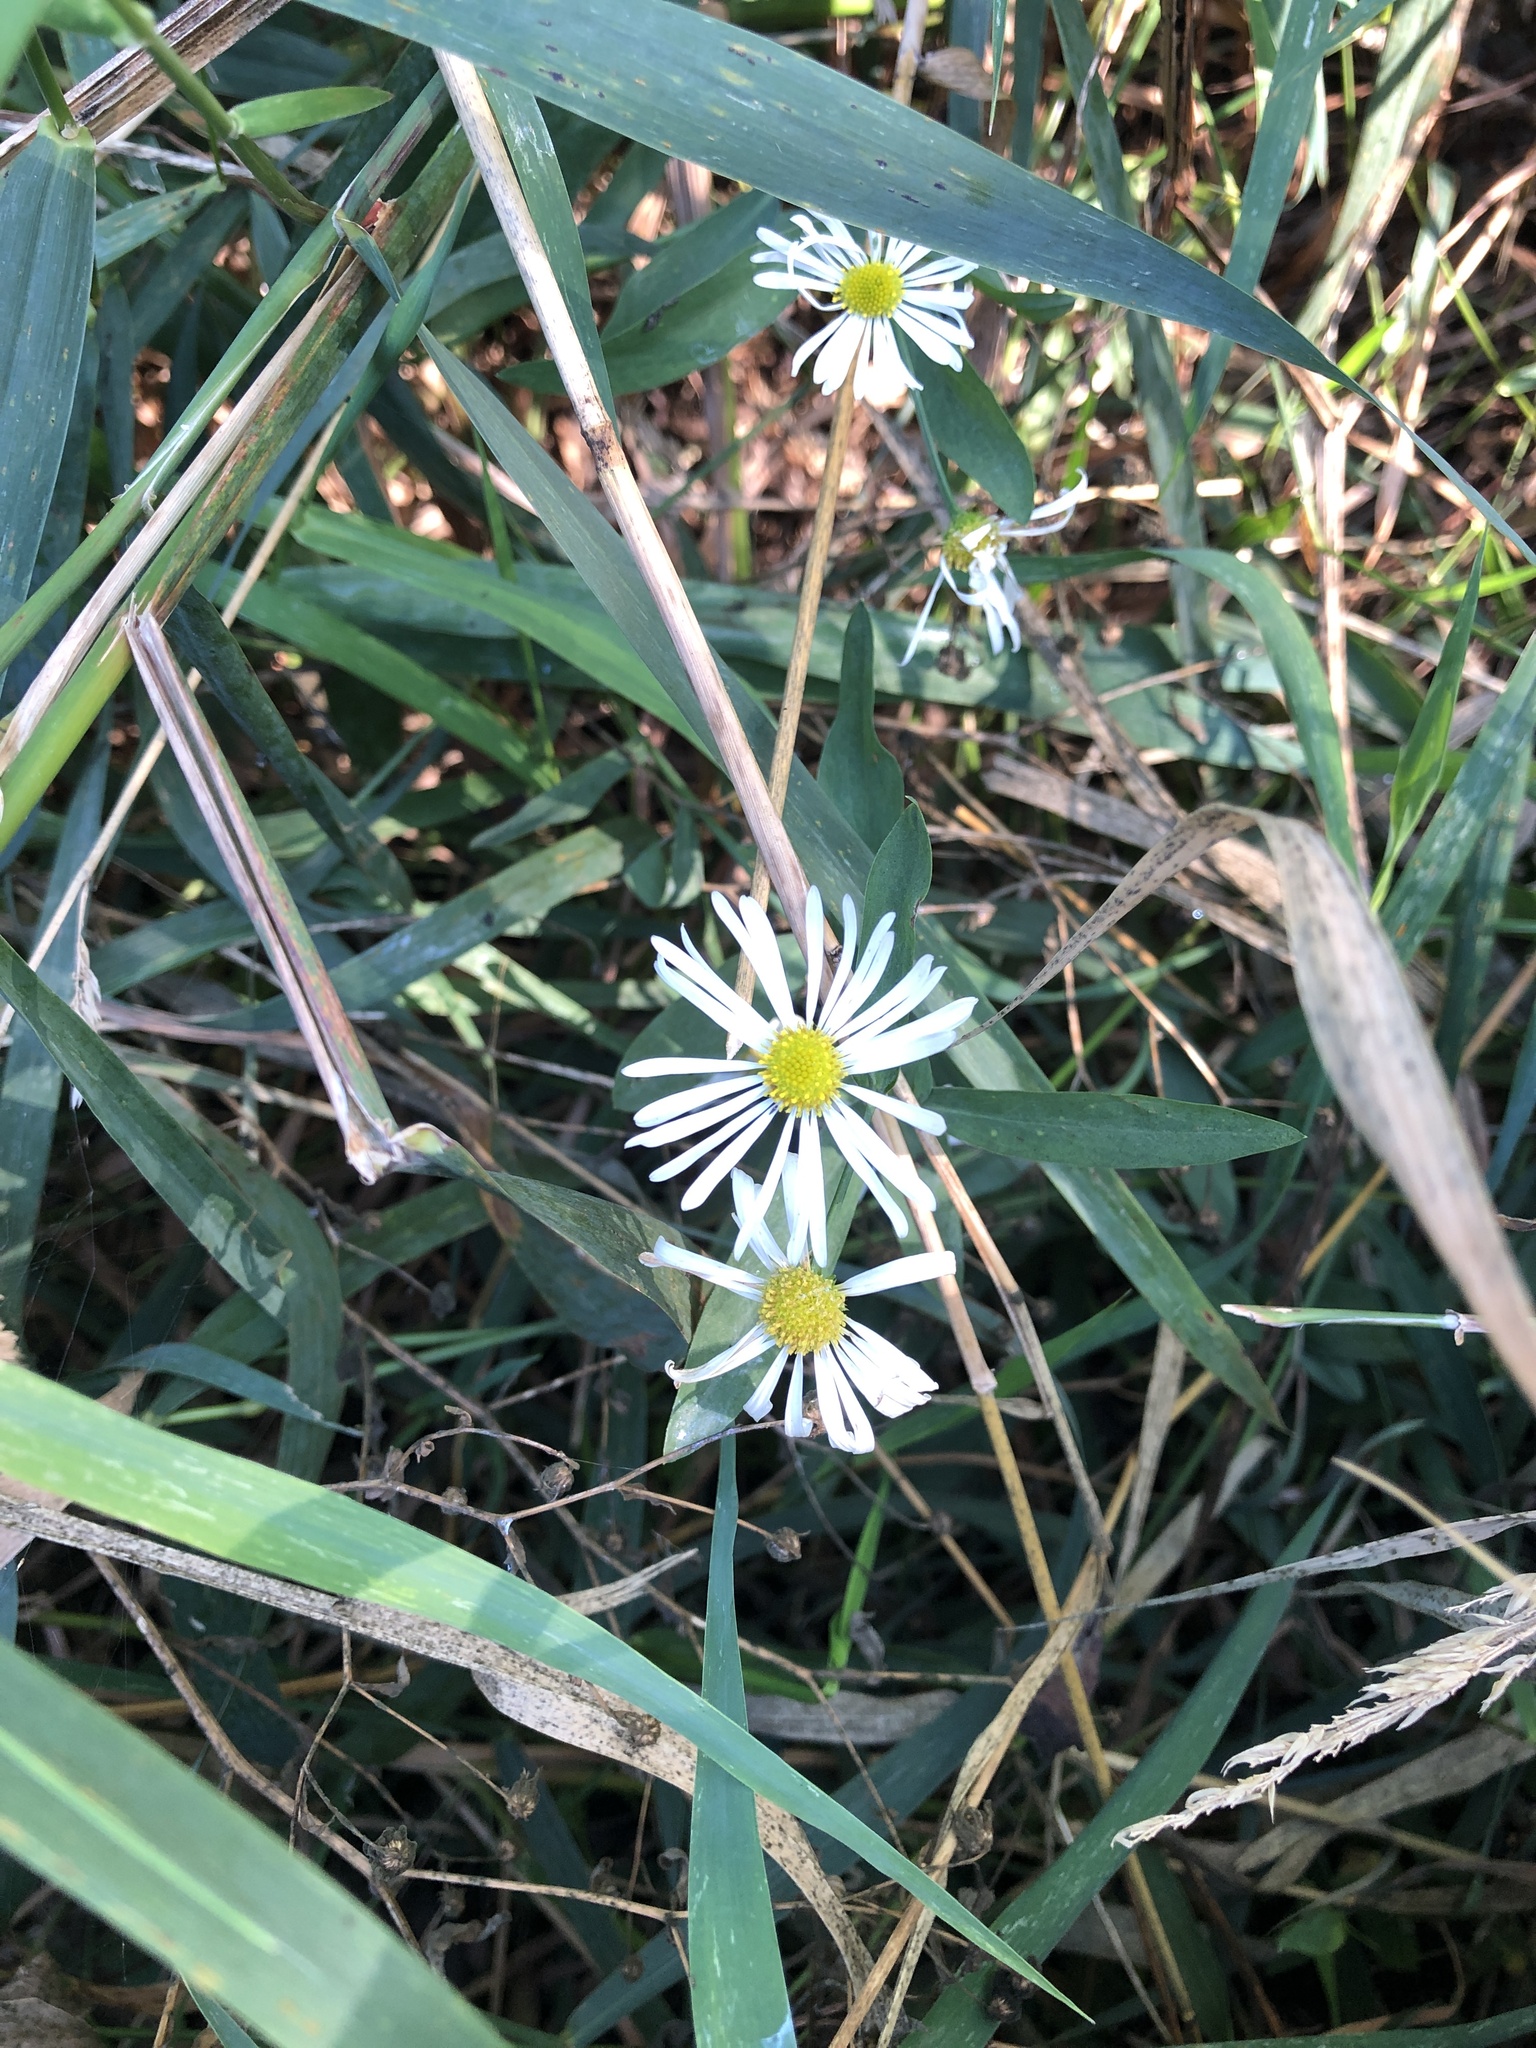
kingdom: Plantae
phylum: Tracheophyta
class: Magnoliopsida
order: Asterales
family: Asteraceae
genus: Boltonia
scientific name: Boltonia asteroides
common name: False chamomile
